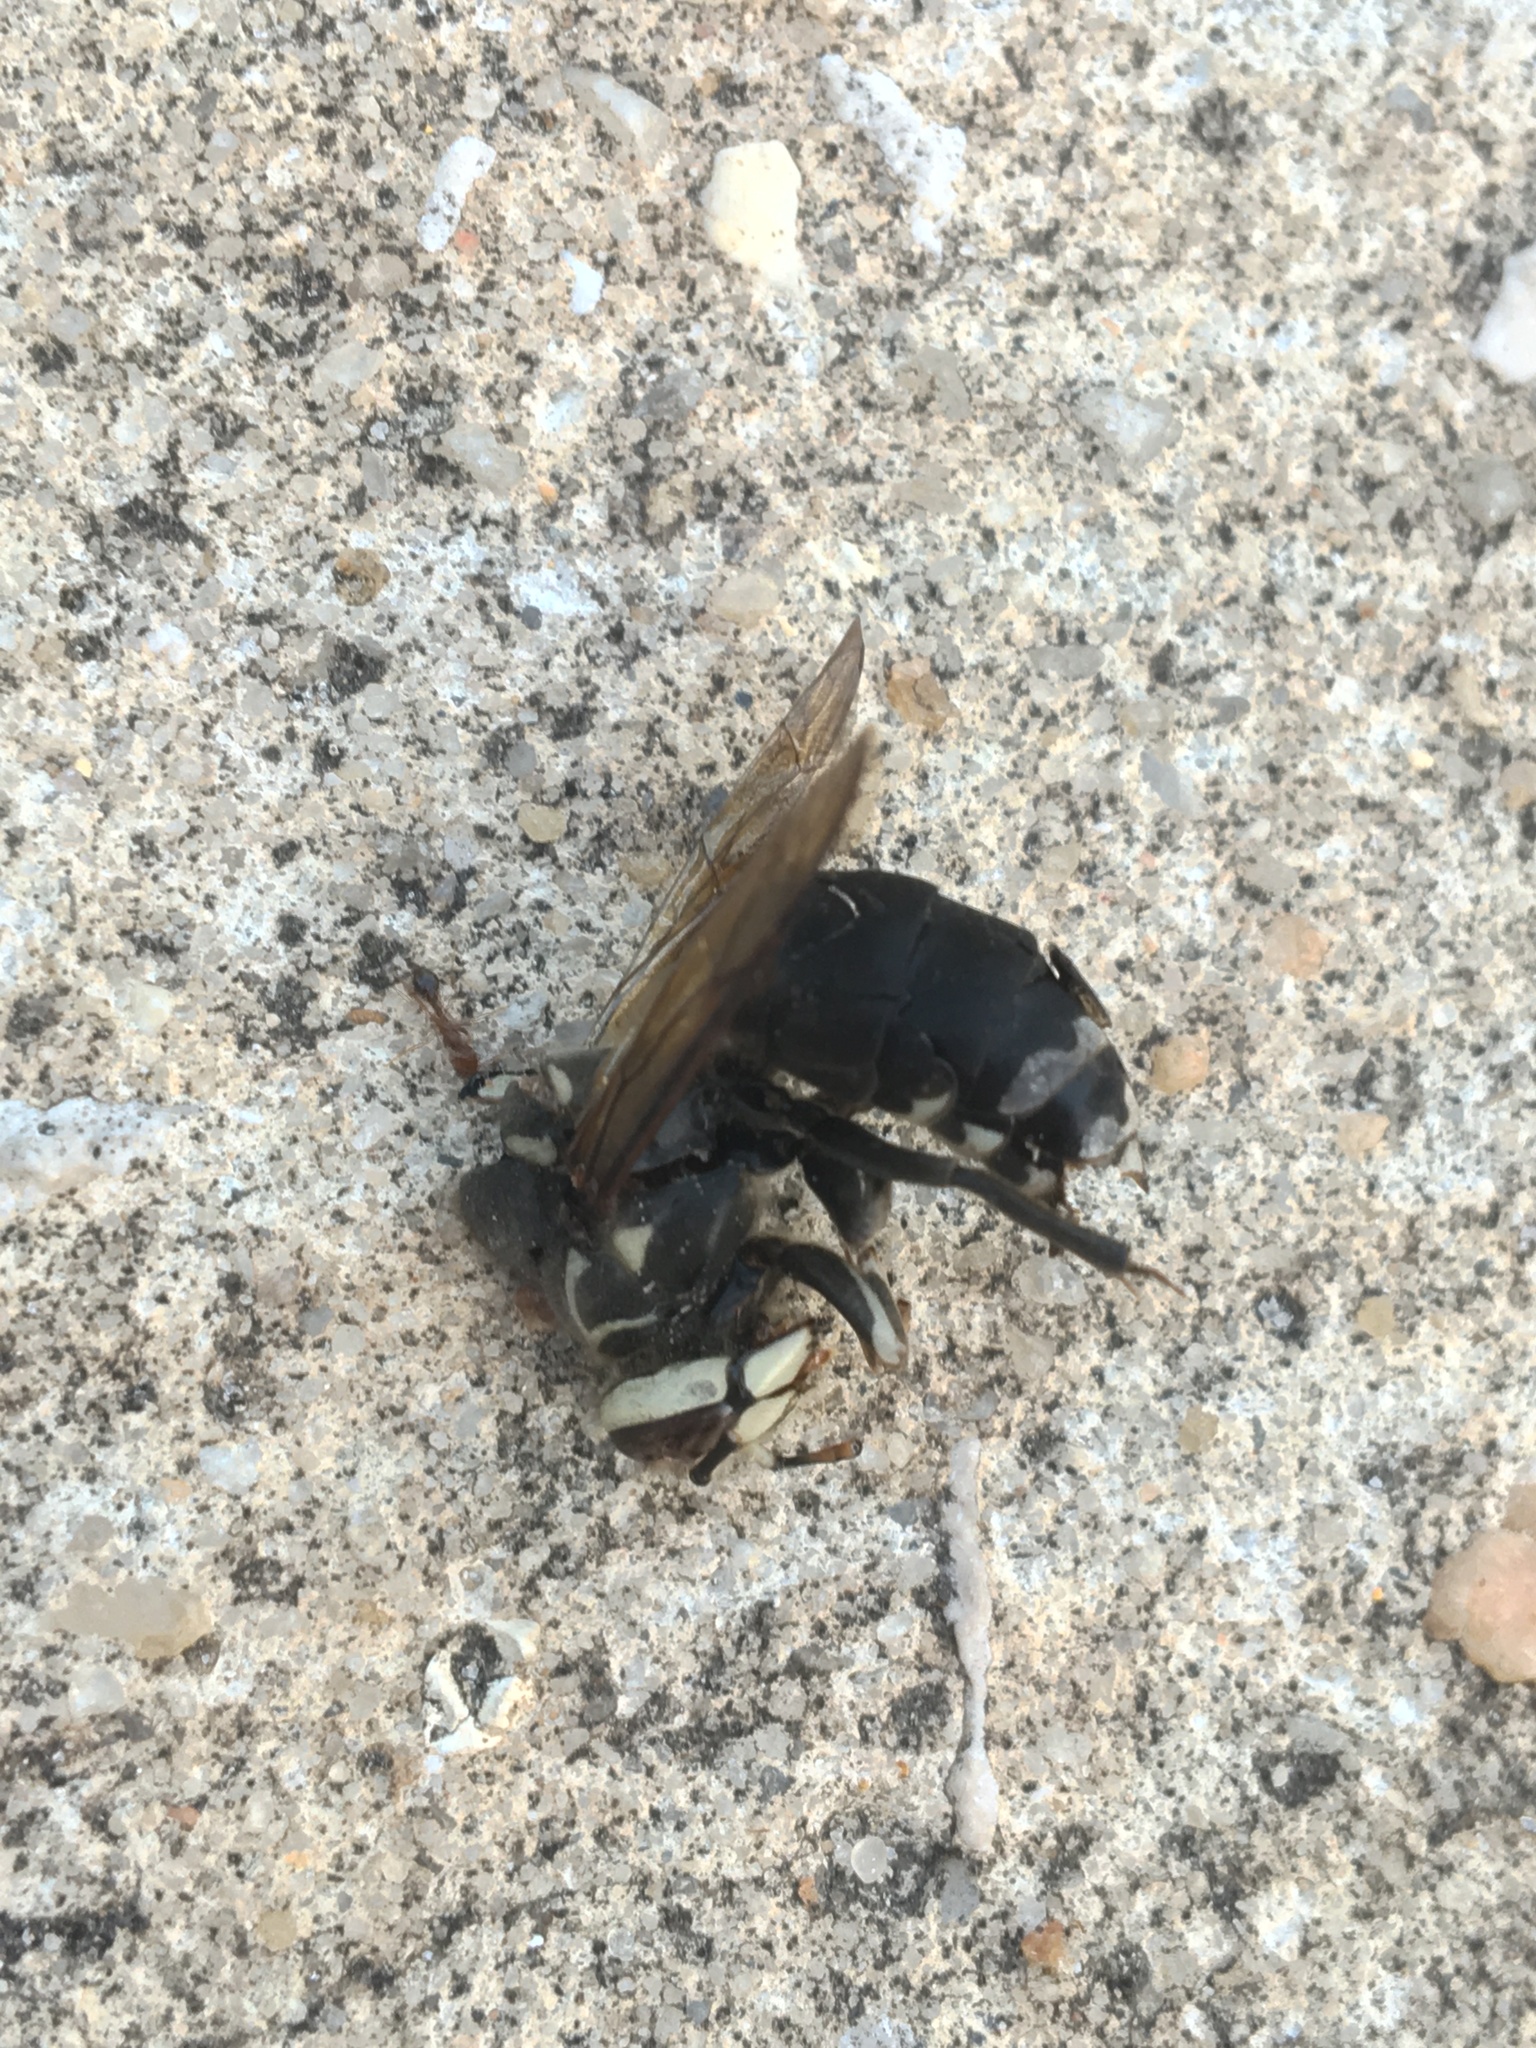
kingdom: Animalia
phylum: Arthropoda
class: Insecta
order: Hymenoptera
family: Vespidae
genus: Dolichovespula
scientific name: Dolichovespula maculata
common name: Bald-faced hornet
